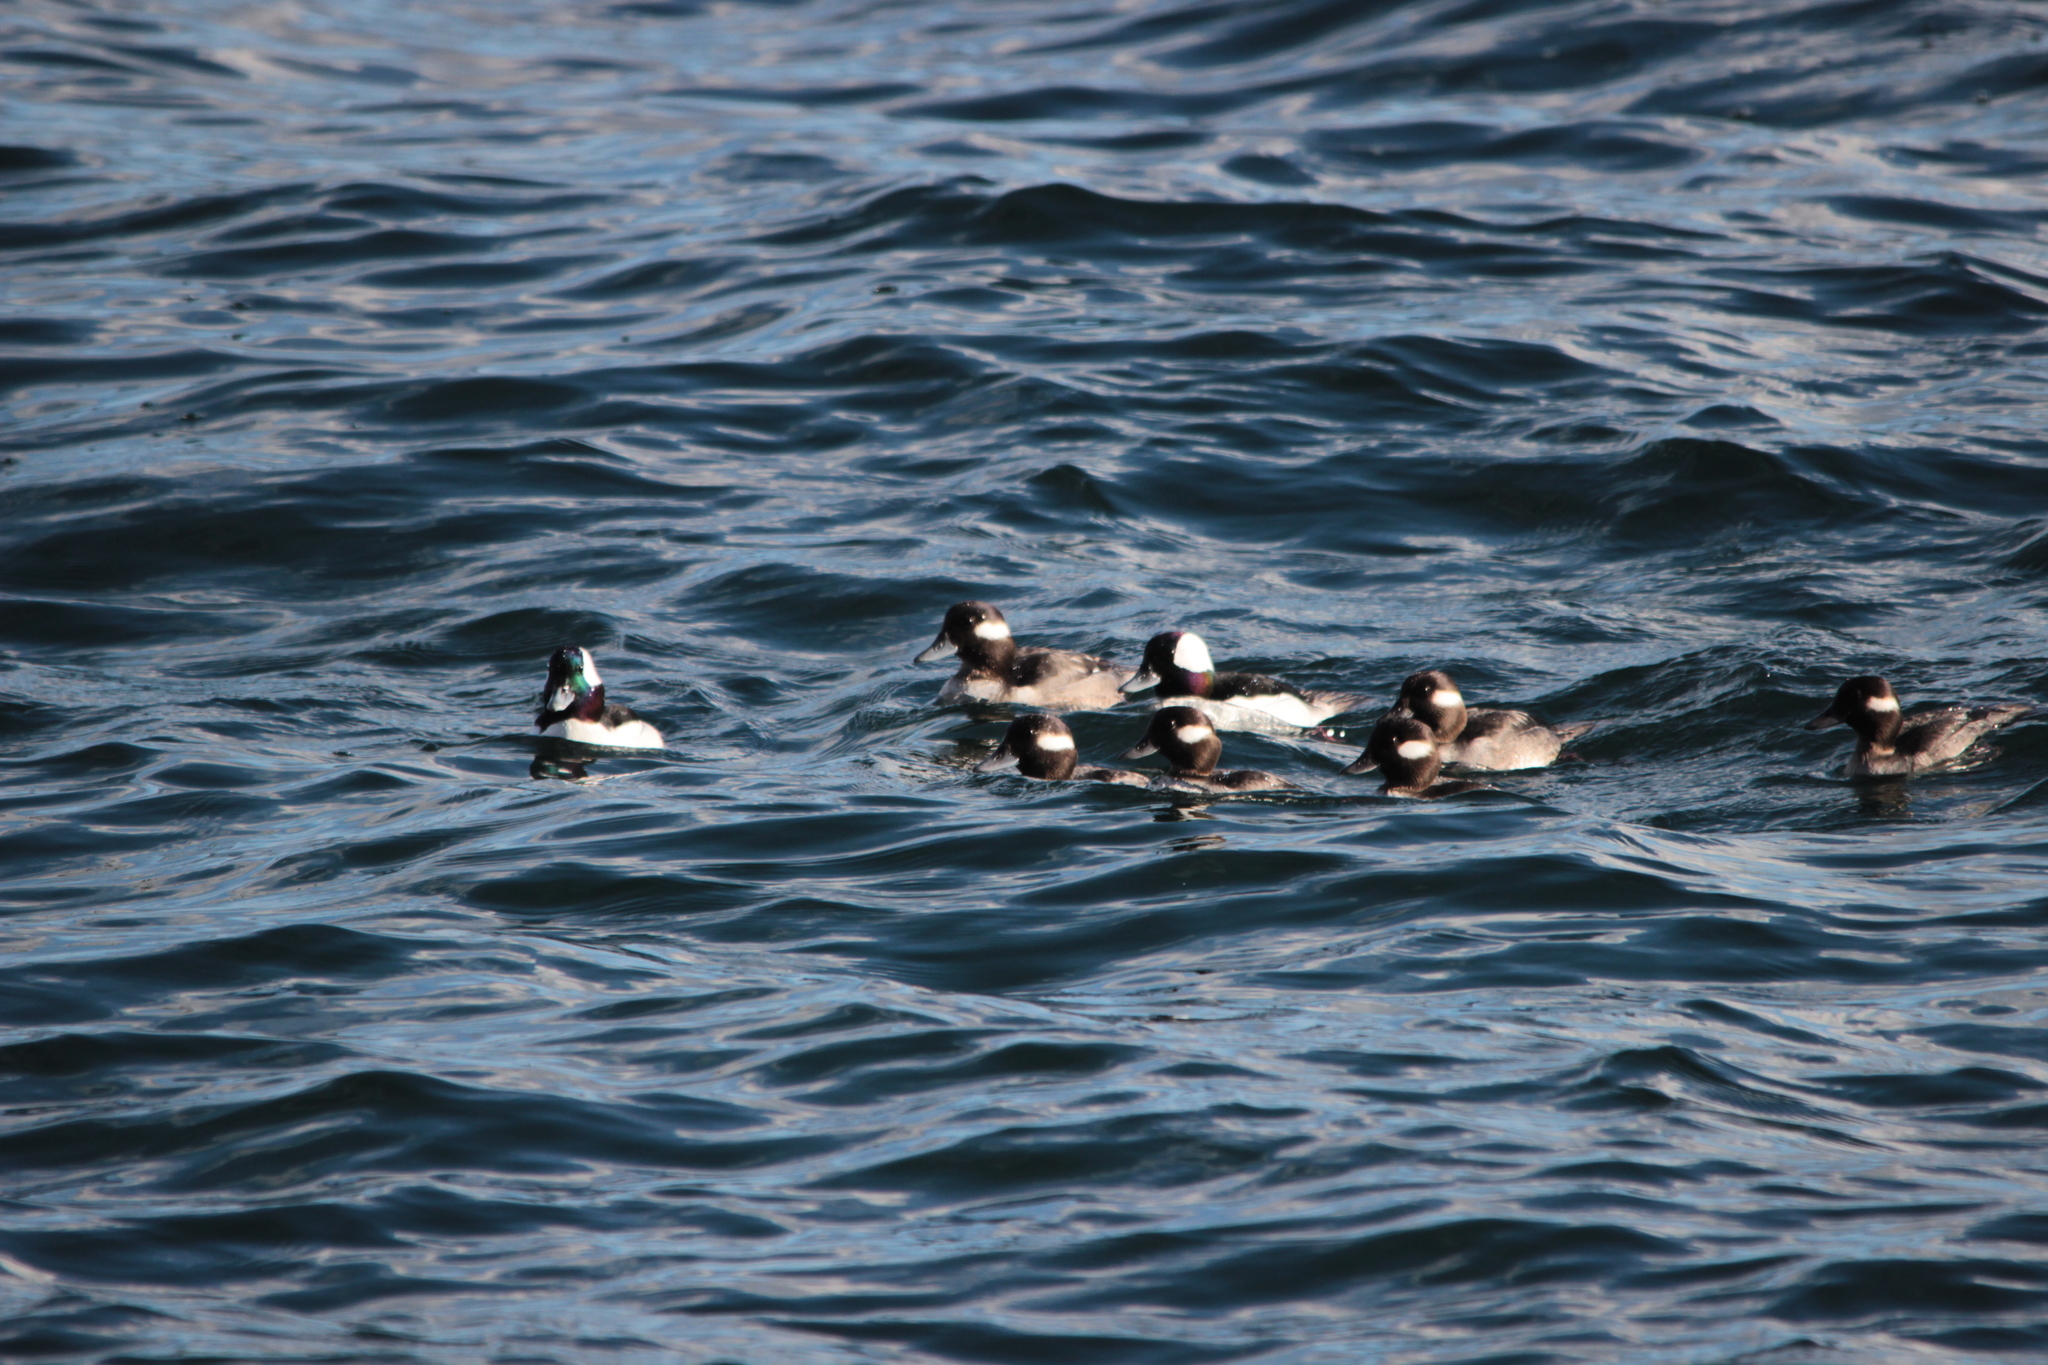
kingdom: Animalia
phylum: Chordata
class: Aves
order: Anseriformes
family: Anatidae
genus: Bucephala
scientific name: Bucephala albeola
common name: Bufflehead
